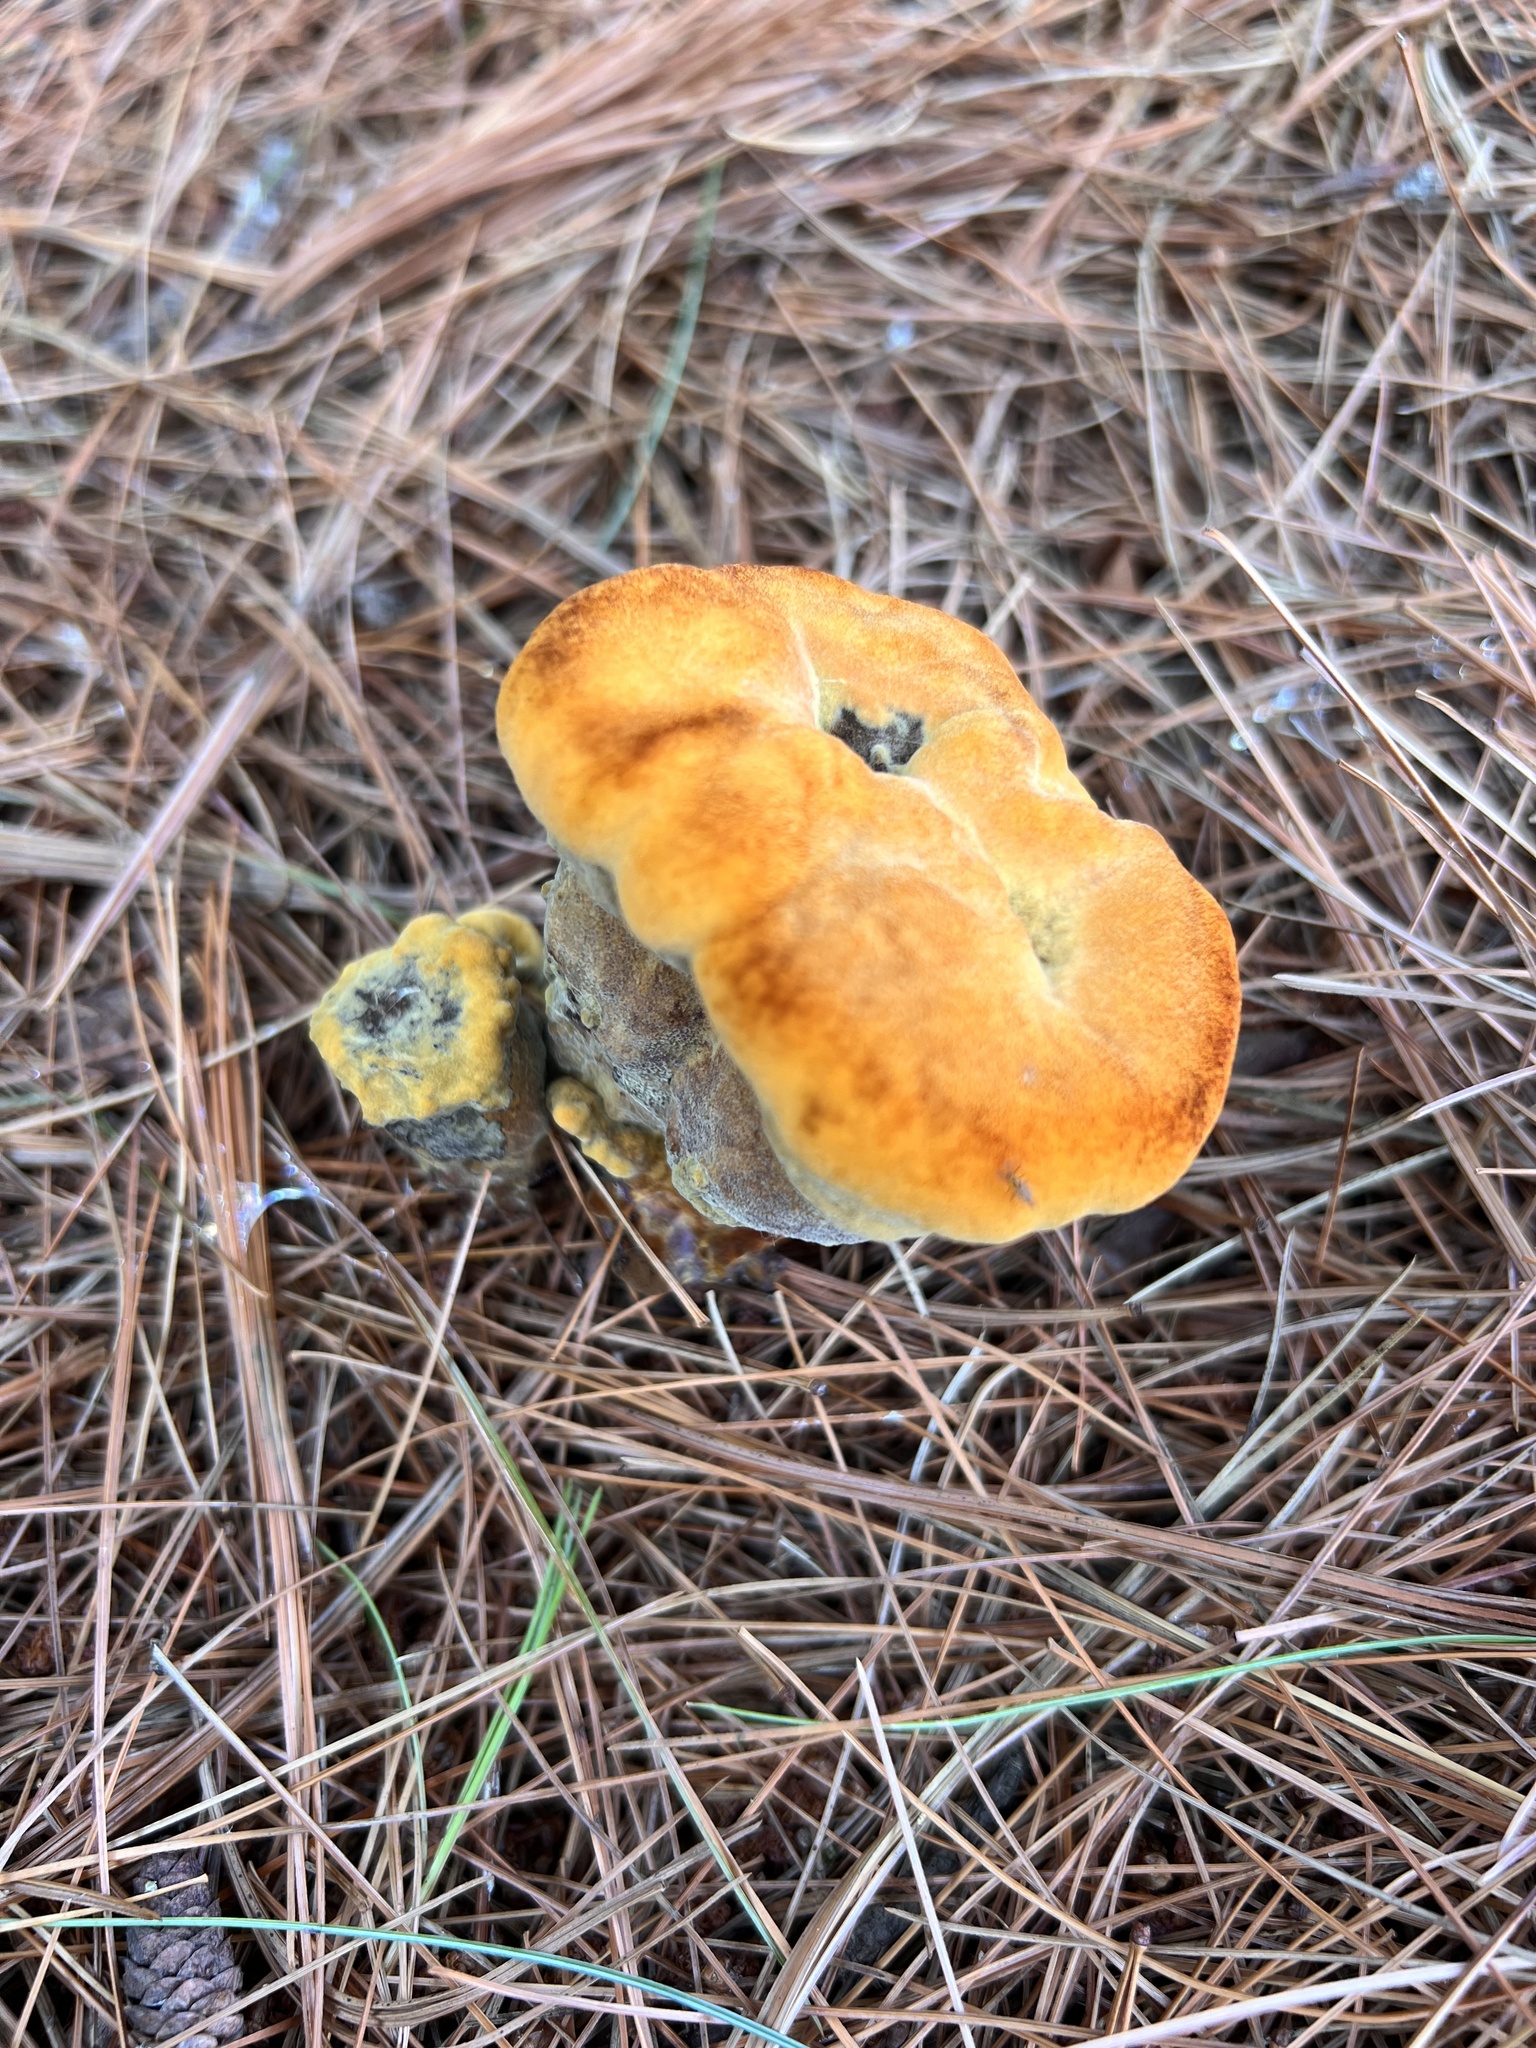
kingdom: Fungi
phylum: Basidiomycota
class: Agaricomycetes
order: Polyporales
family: Laetiporaceae
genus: Phaeolus
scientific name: Phaeolus schweinitzii
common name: Dyer's mazegill
